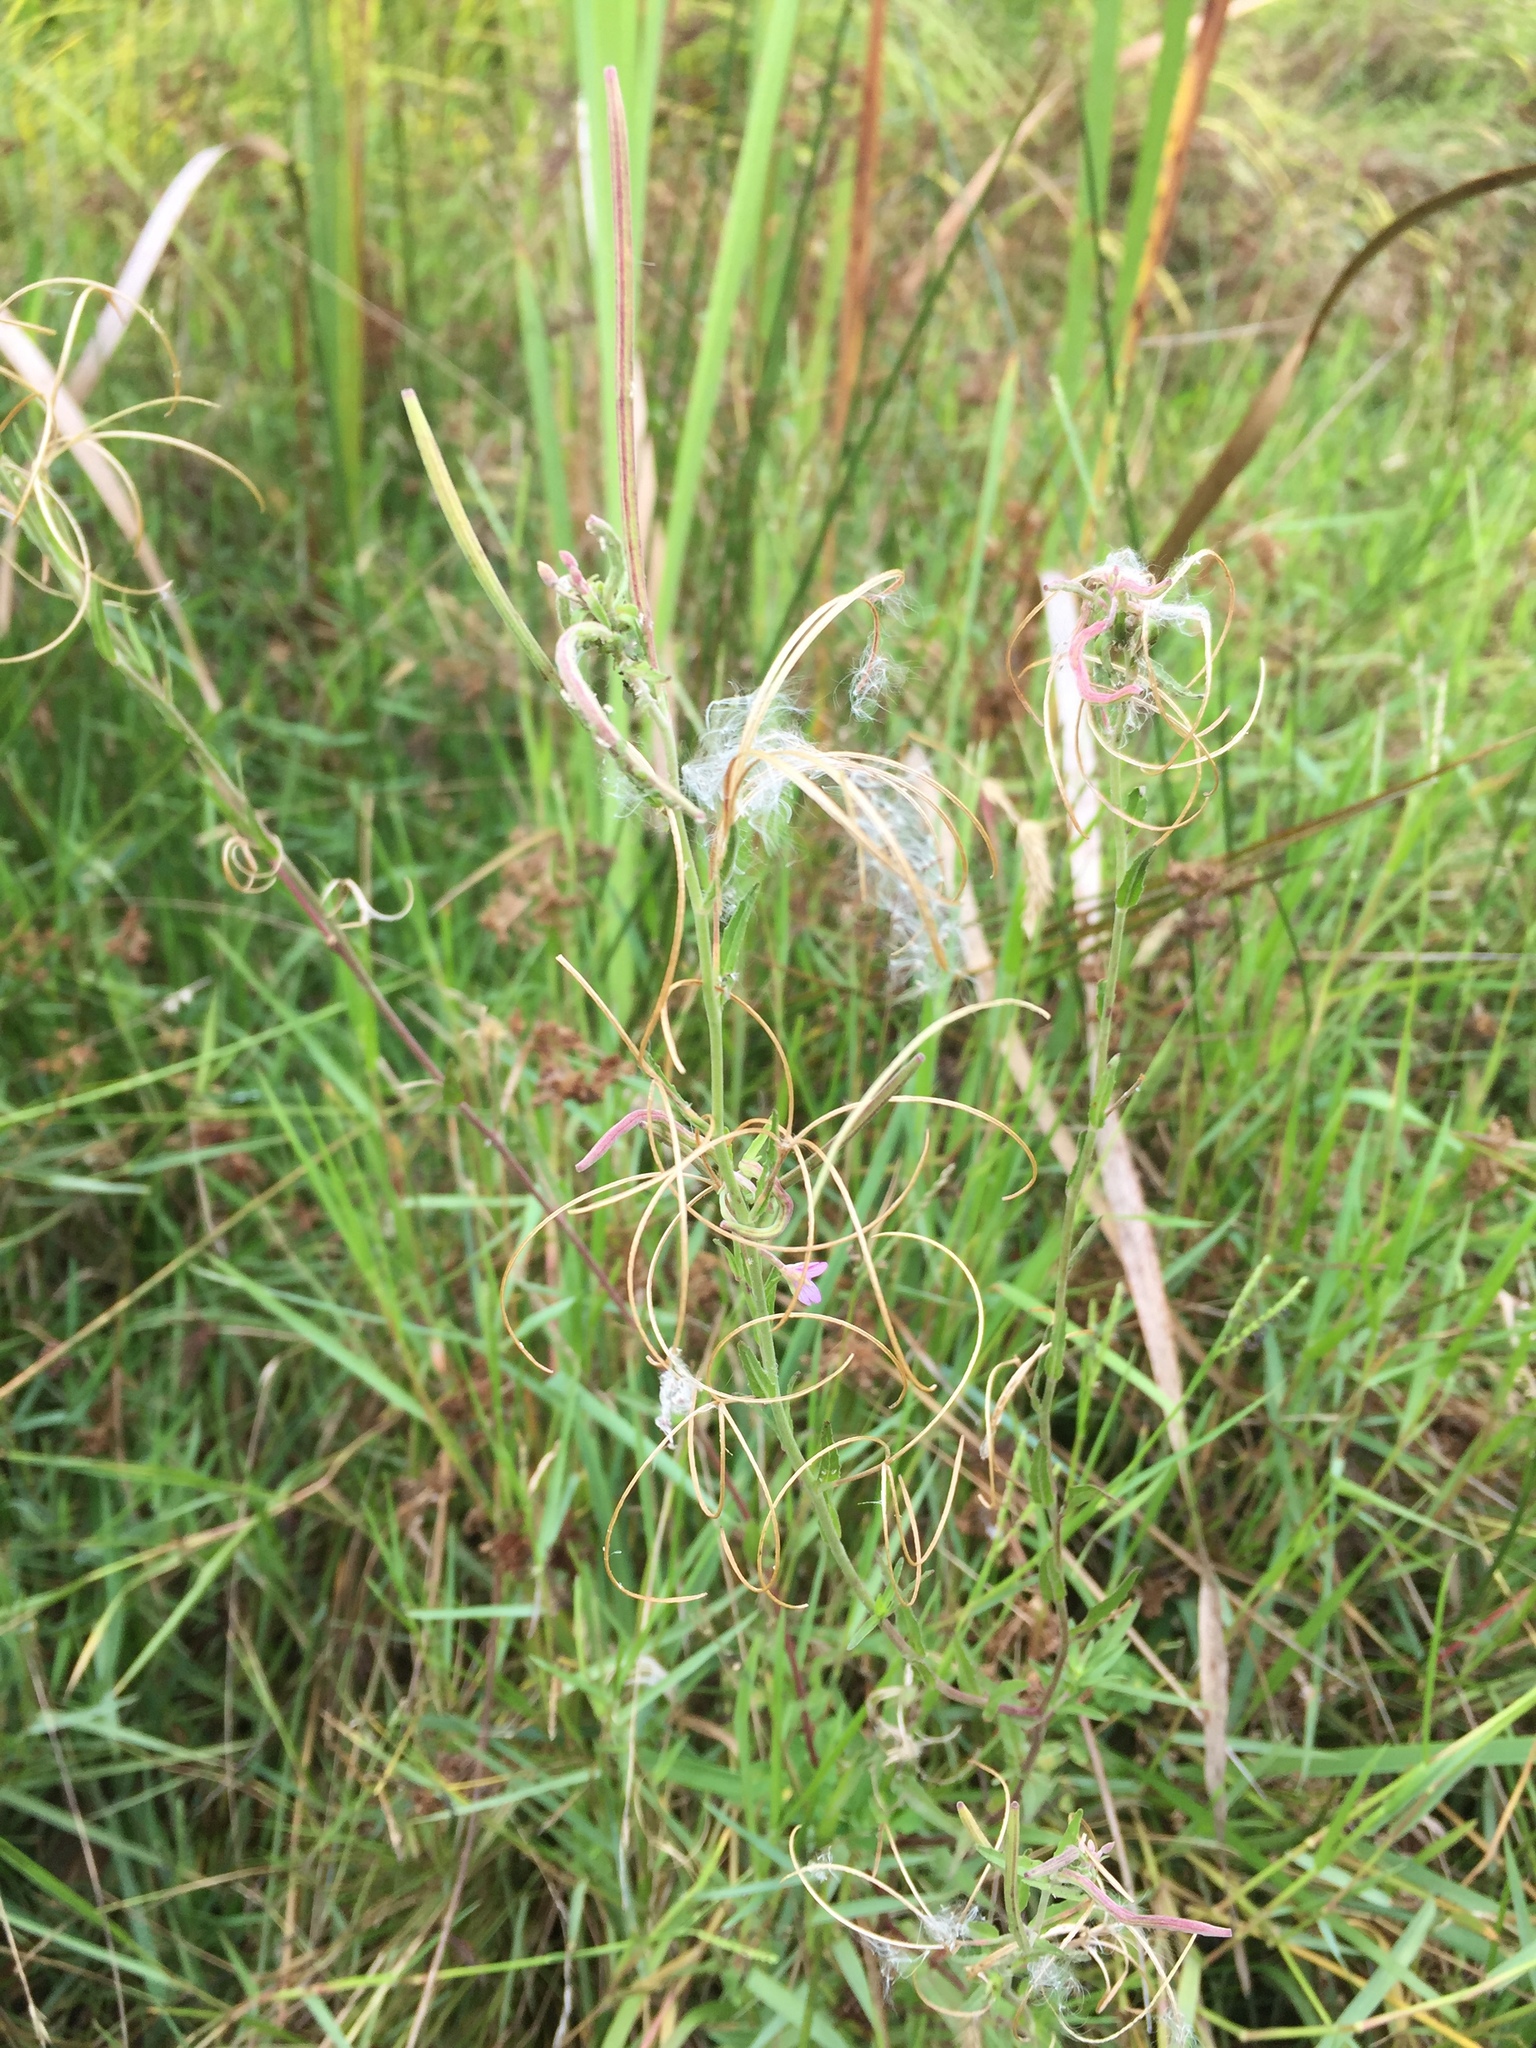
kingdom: Plantae
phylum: Tracheophyta
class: Magnoliopsida
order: Myrtales
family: Onagraceae
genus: Epilobium
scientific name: Epilobium pallidiflorum
